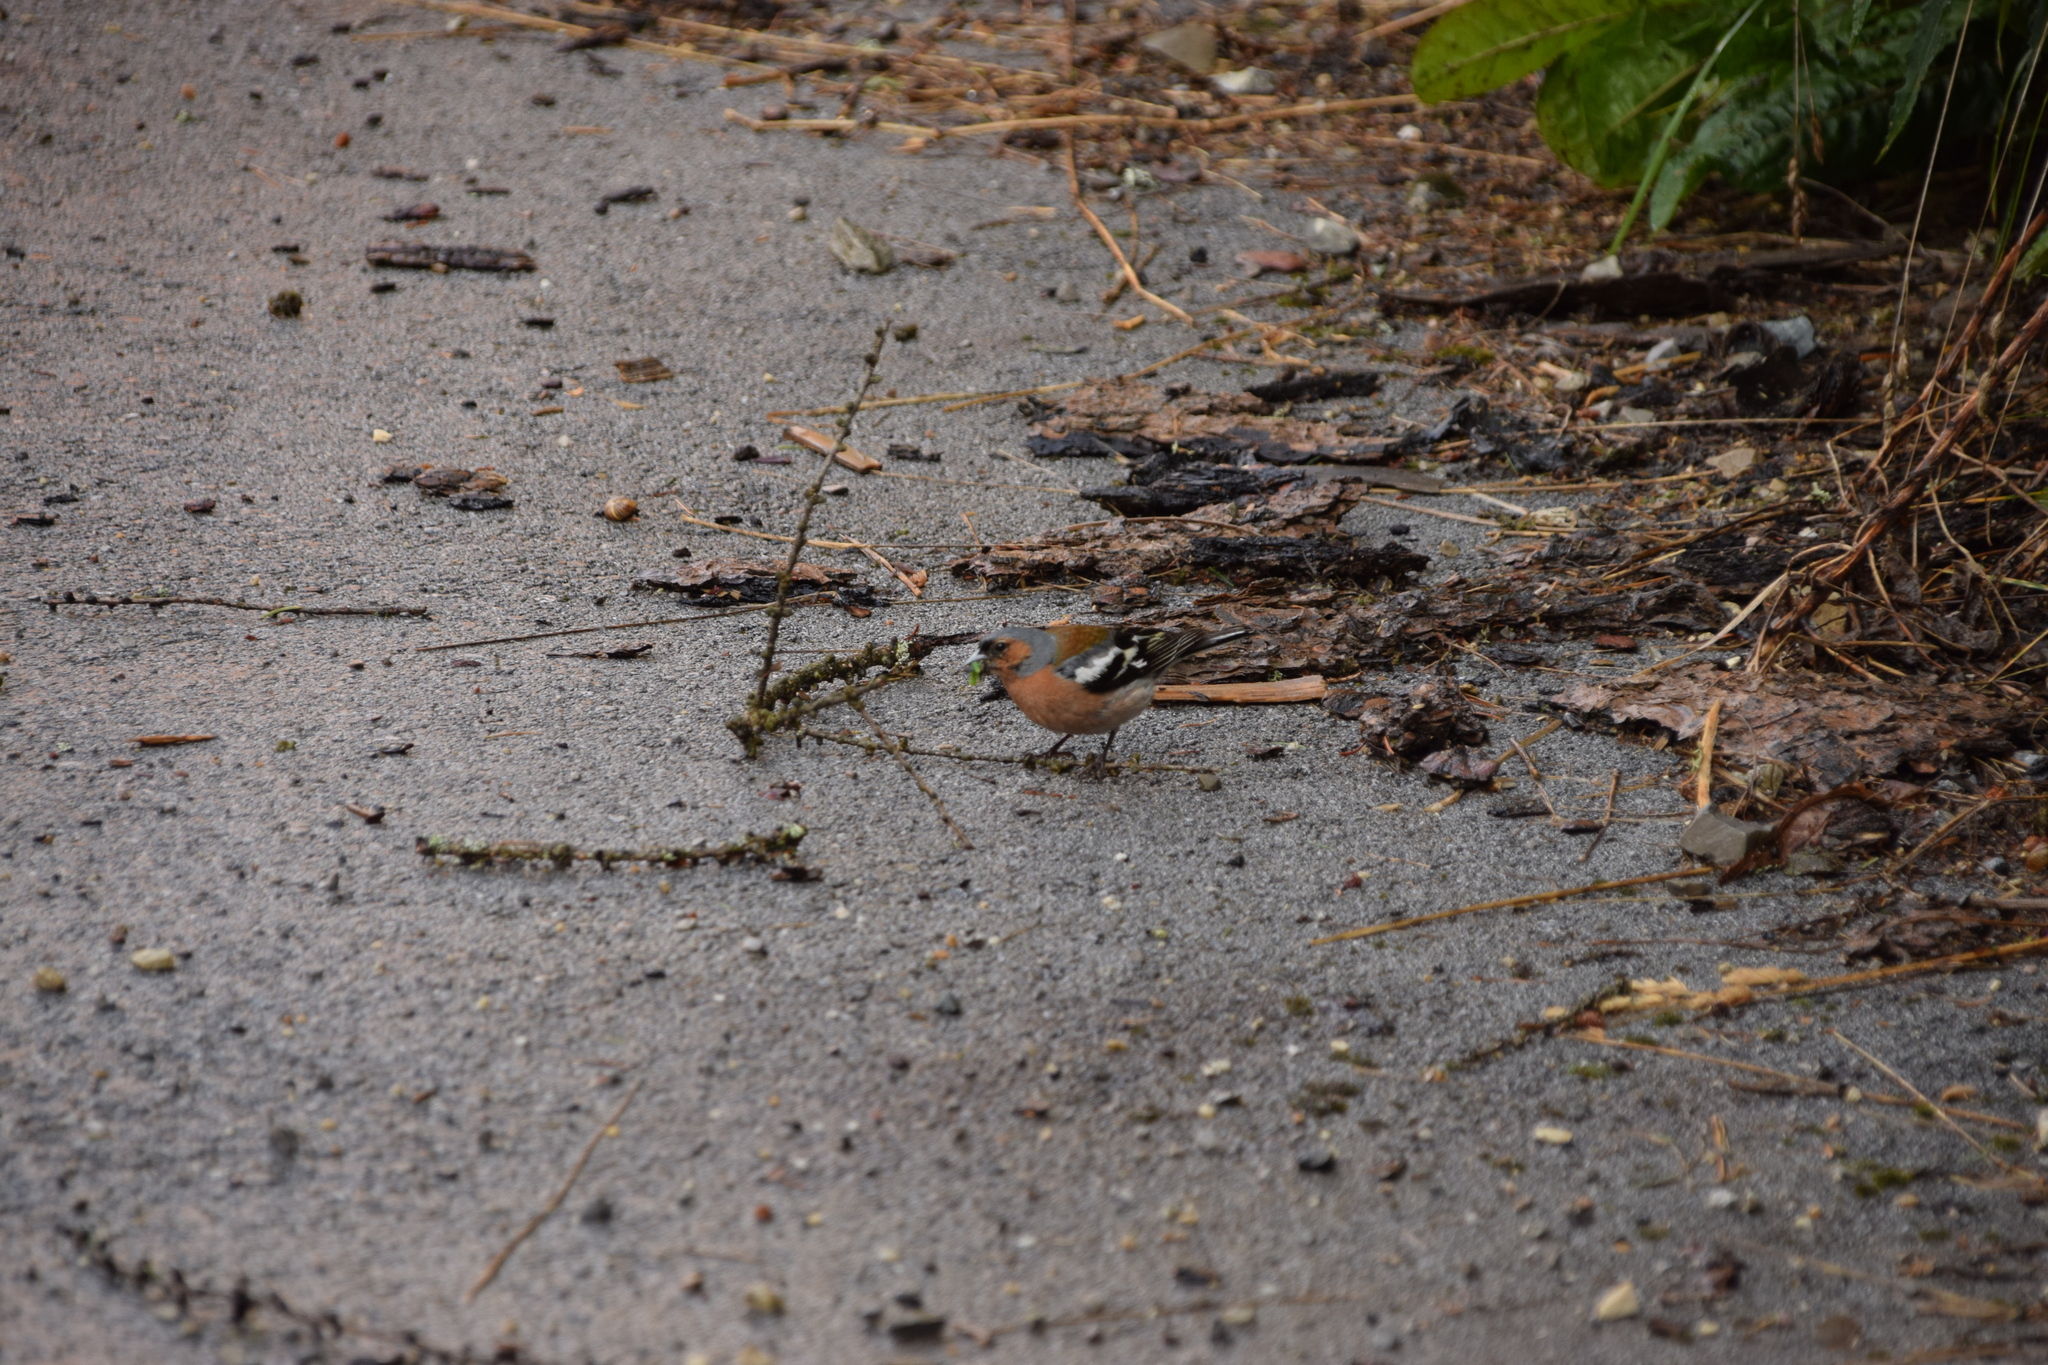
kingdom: Animalia
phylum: Chordata
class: Aves
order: Passeriformes
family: Fringillidae
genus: Fringilla
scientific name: Fringilla coelebs
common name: Common chaffinch
